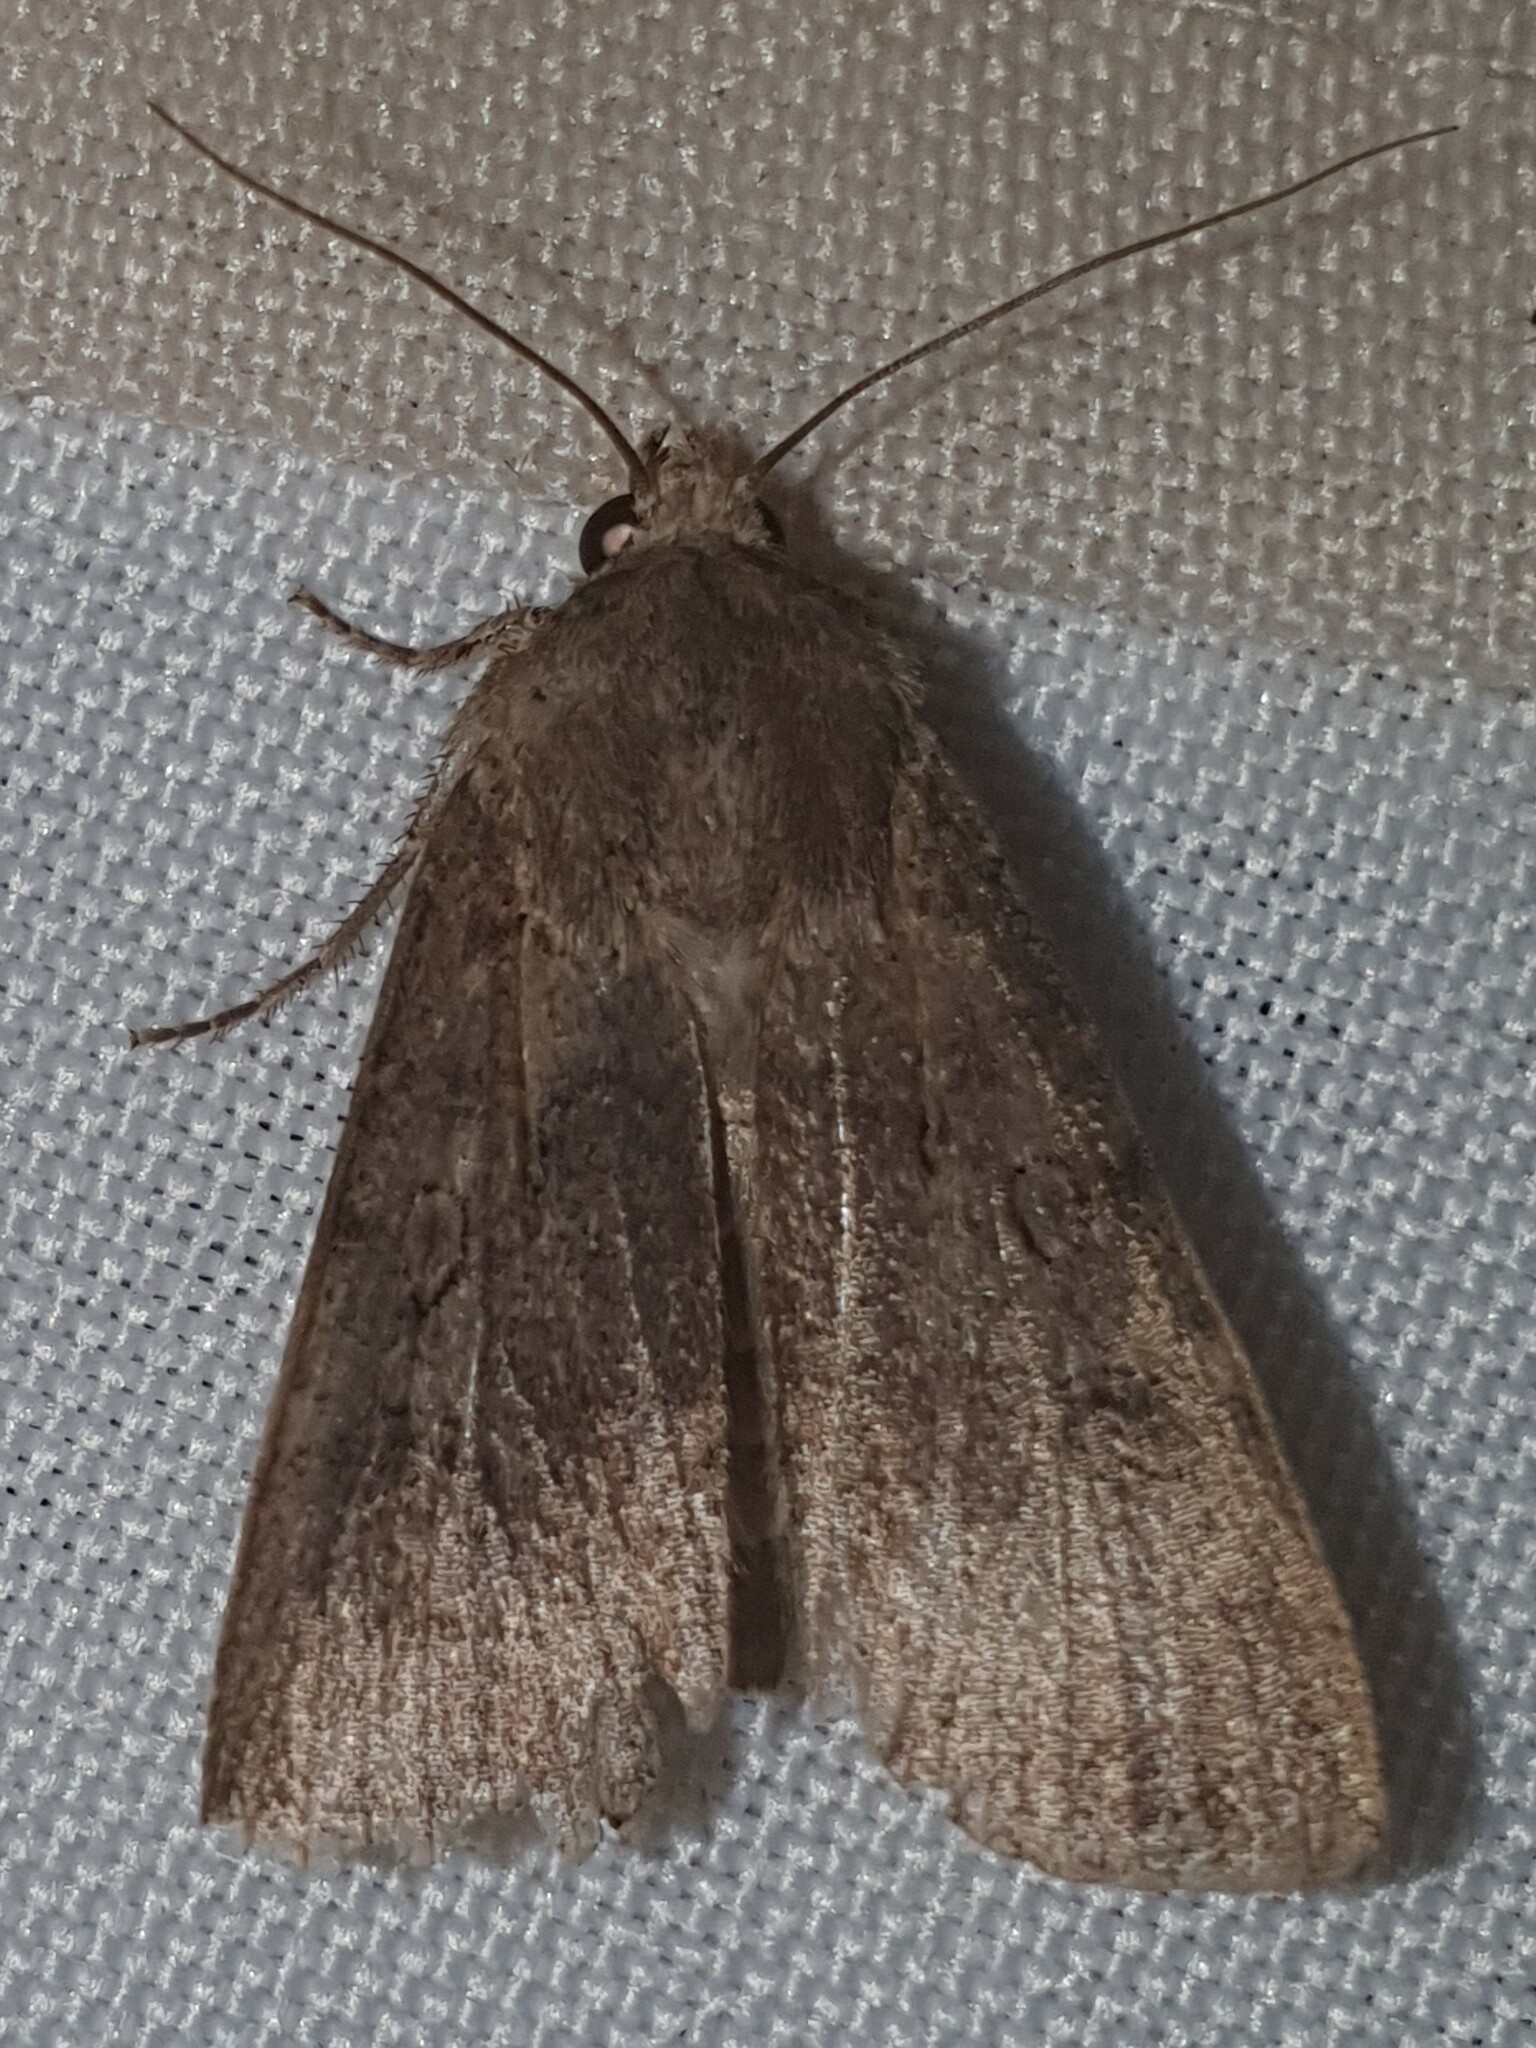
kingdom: Animalia
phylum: Arthropoda
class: Insecta
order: Lepidoptera
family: Noctuidae
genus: Agrotis
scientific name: Agrotis segetum
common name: Turnip moth
